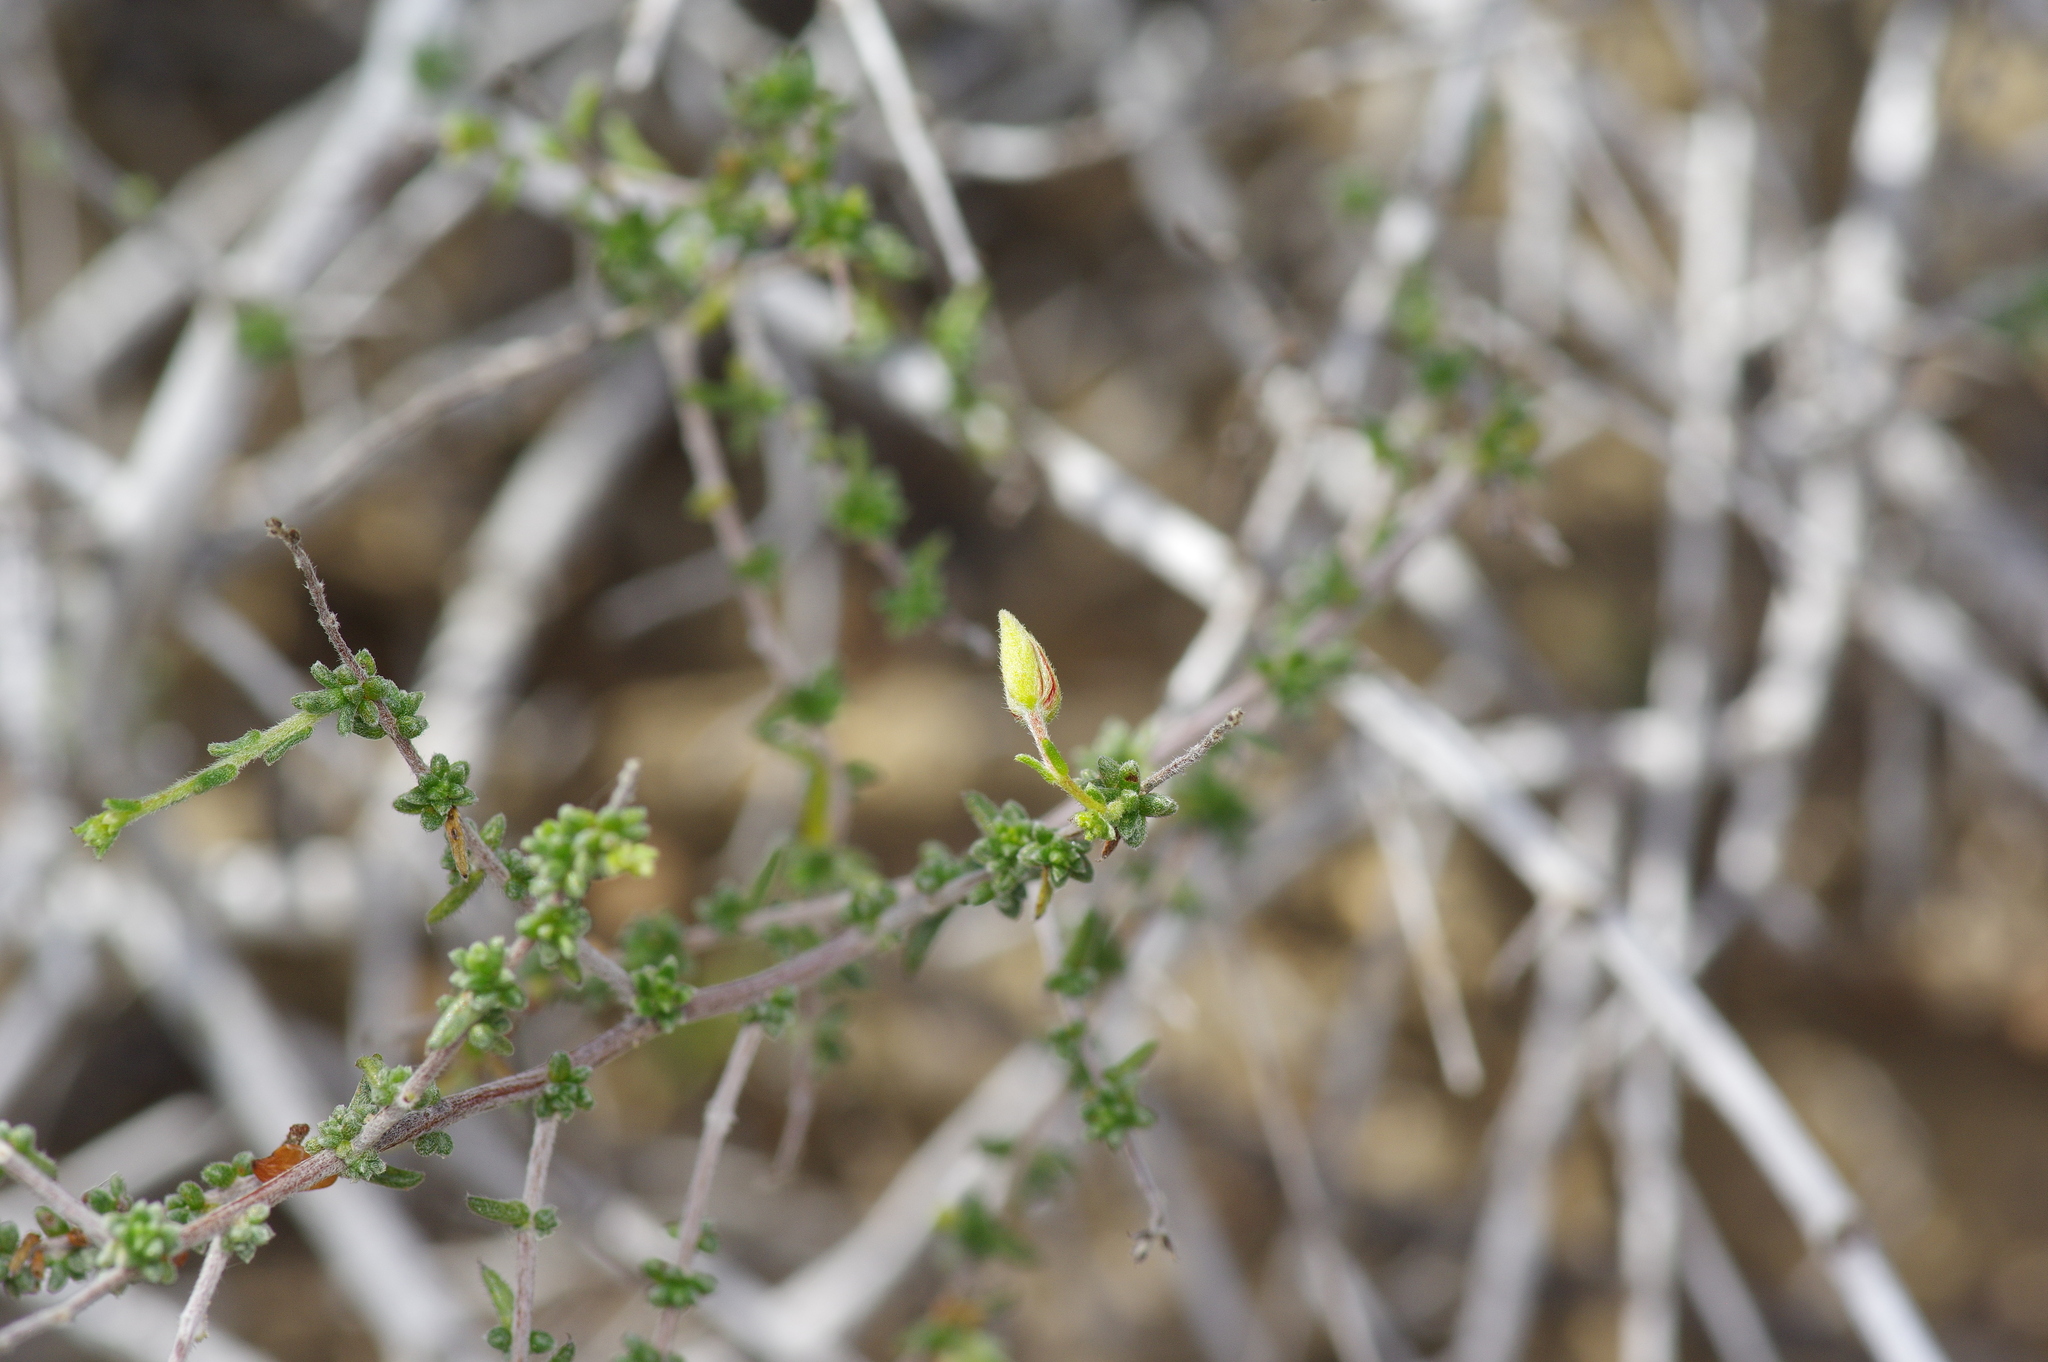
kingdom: Plantae
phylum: Tracheophyta
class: Magnoliopsida
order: Zygophyllales
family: Krameriaceae
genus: Krameria
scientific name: Krameria ramosissima
